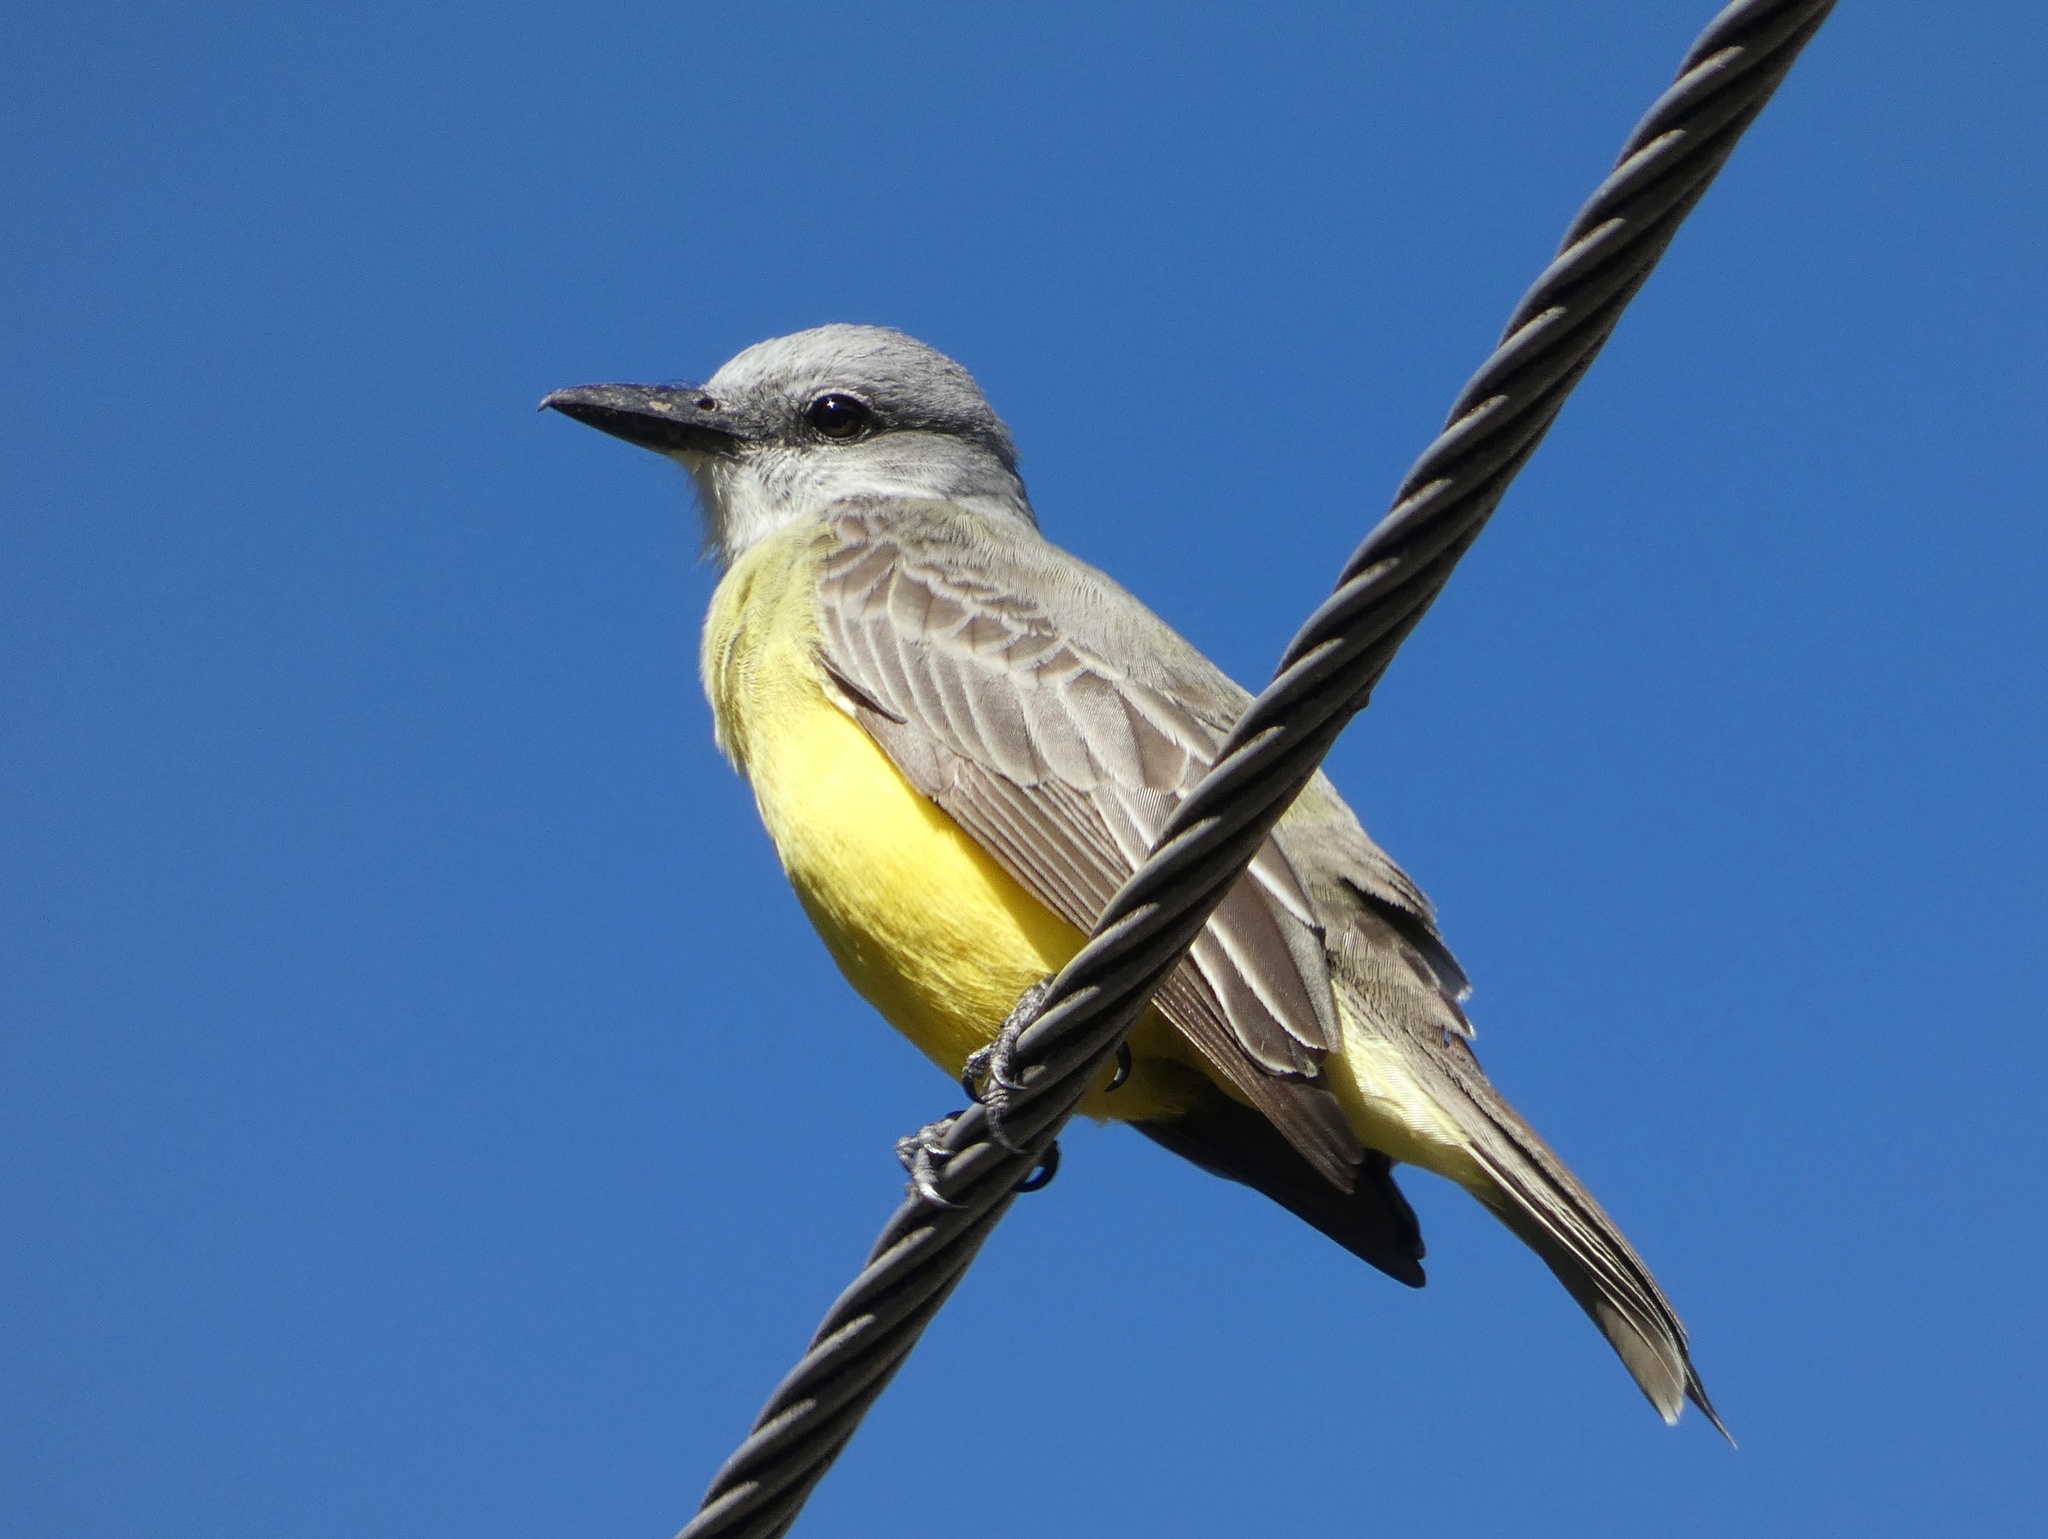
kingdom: Animalia
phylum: Chordata
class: Aves
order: Passeriformes
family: Tyrannidae
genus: Tyrannus
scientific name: Tyrannus melancholicus
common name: Tropical kingbird
